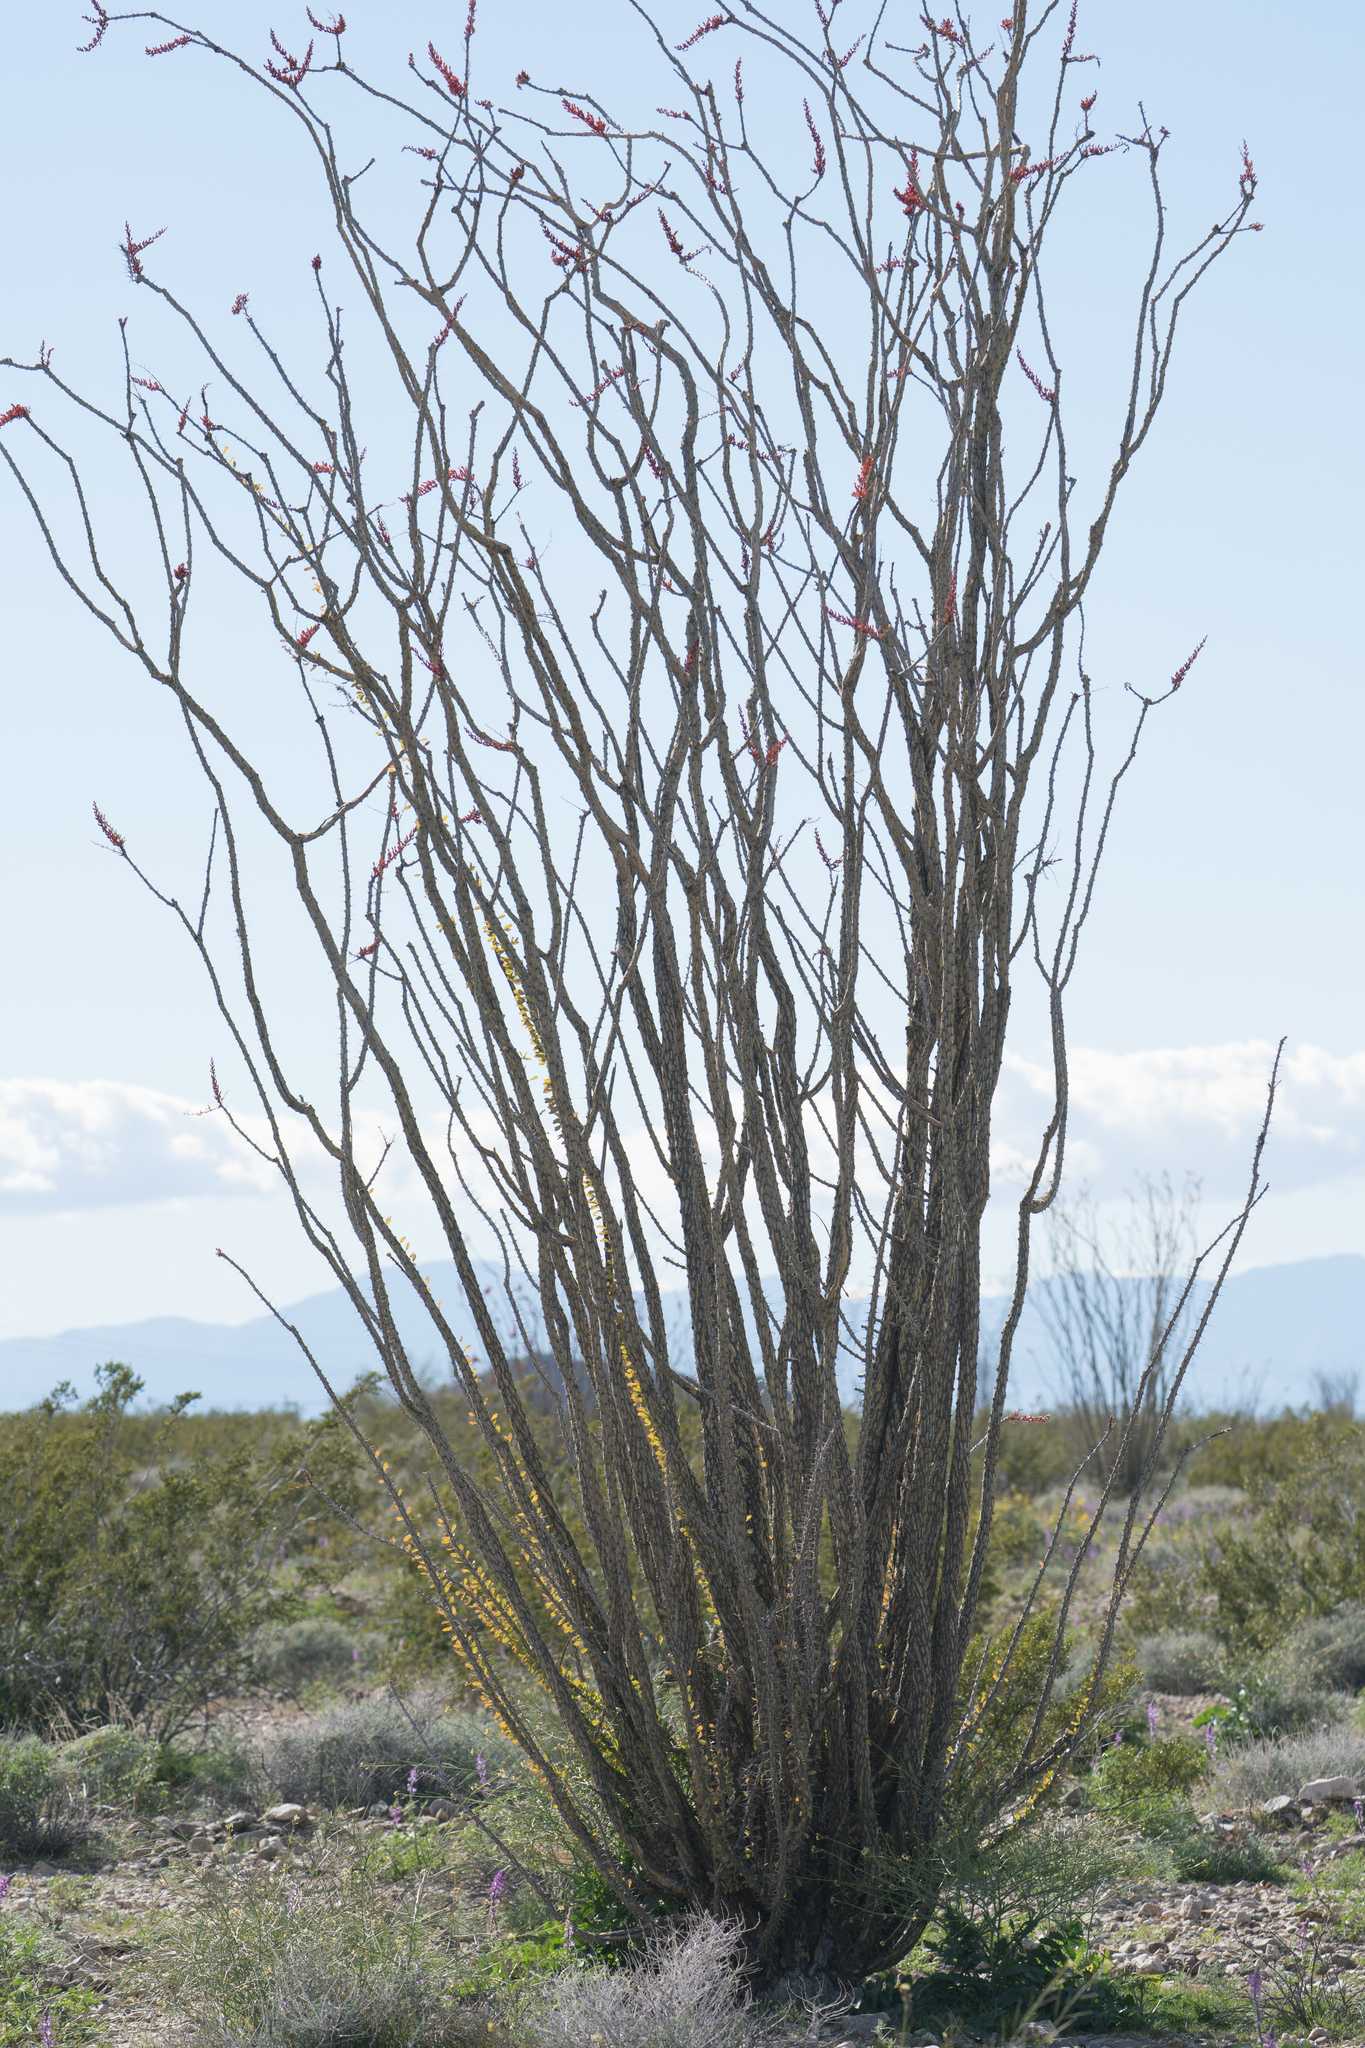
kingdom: Plantae
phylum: Tracheophyta
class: Magnoliopsida
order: Ericales
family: Fouquieriaceae
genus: Fouquieria
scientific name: Fouquieria splendens
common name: Vine-cactus
